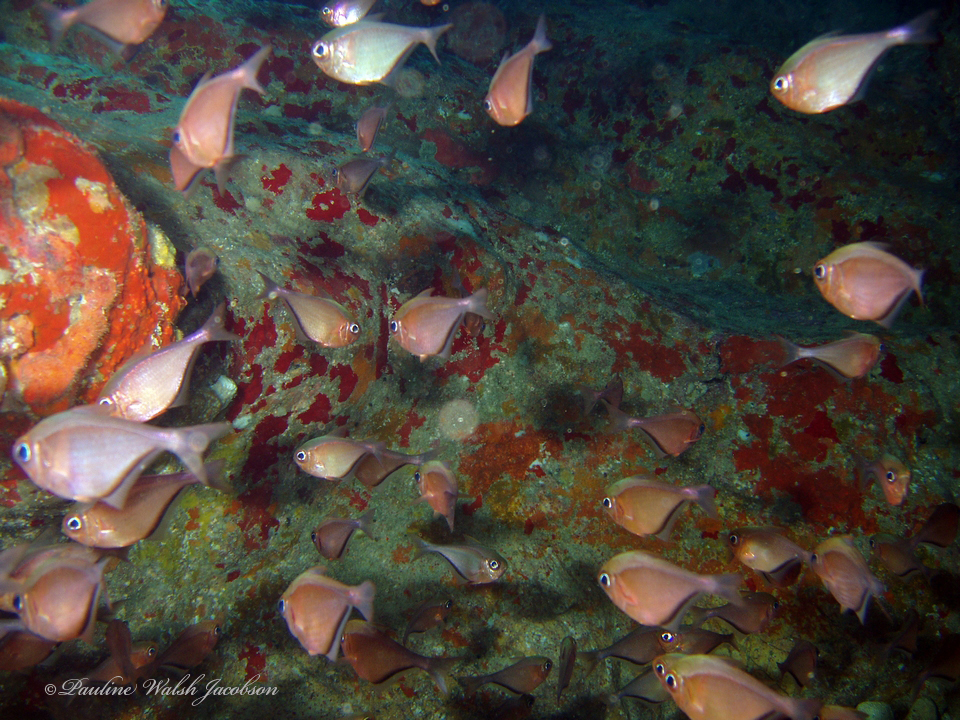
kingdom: Animalia
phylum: Chordata
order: Perciformes
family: Pempheridae
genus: Pempheris
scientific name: Pempheris schomburgkii
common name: Glassy sweeper
